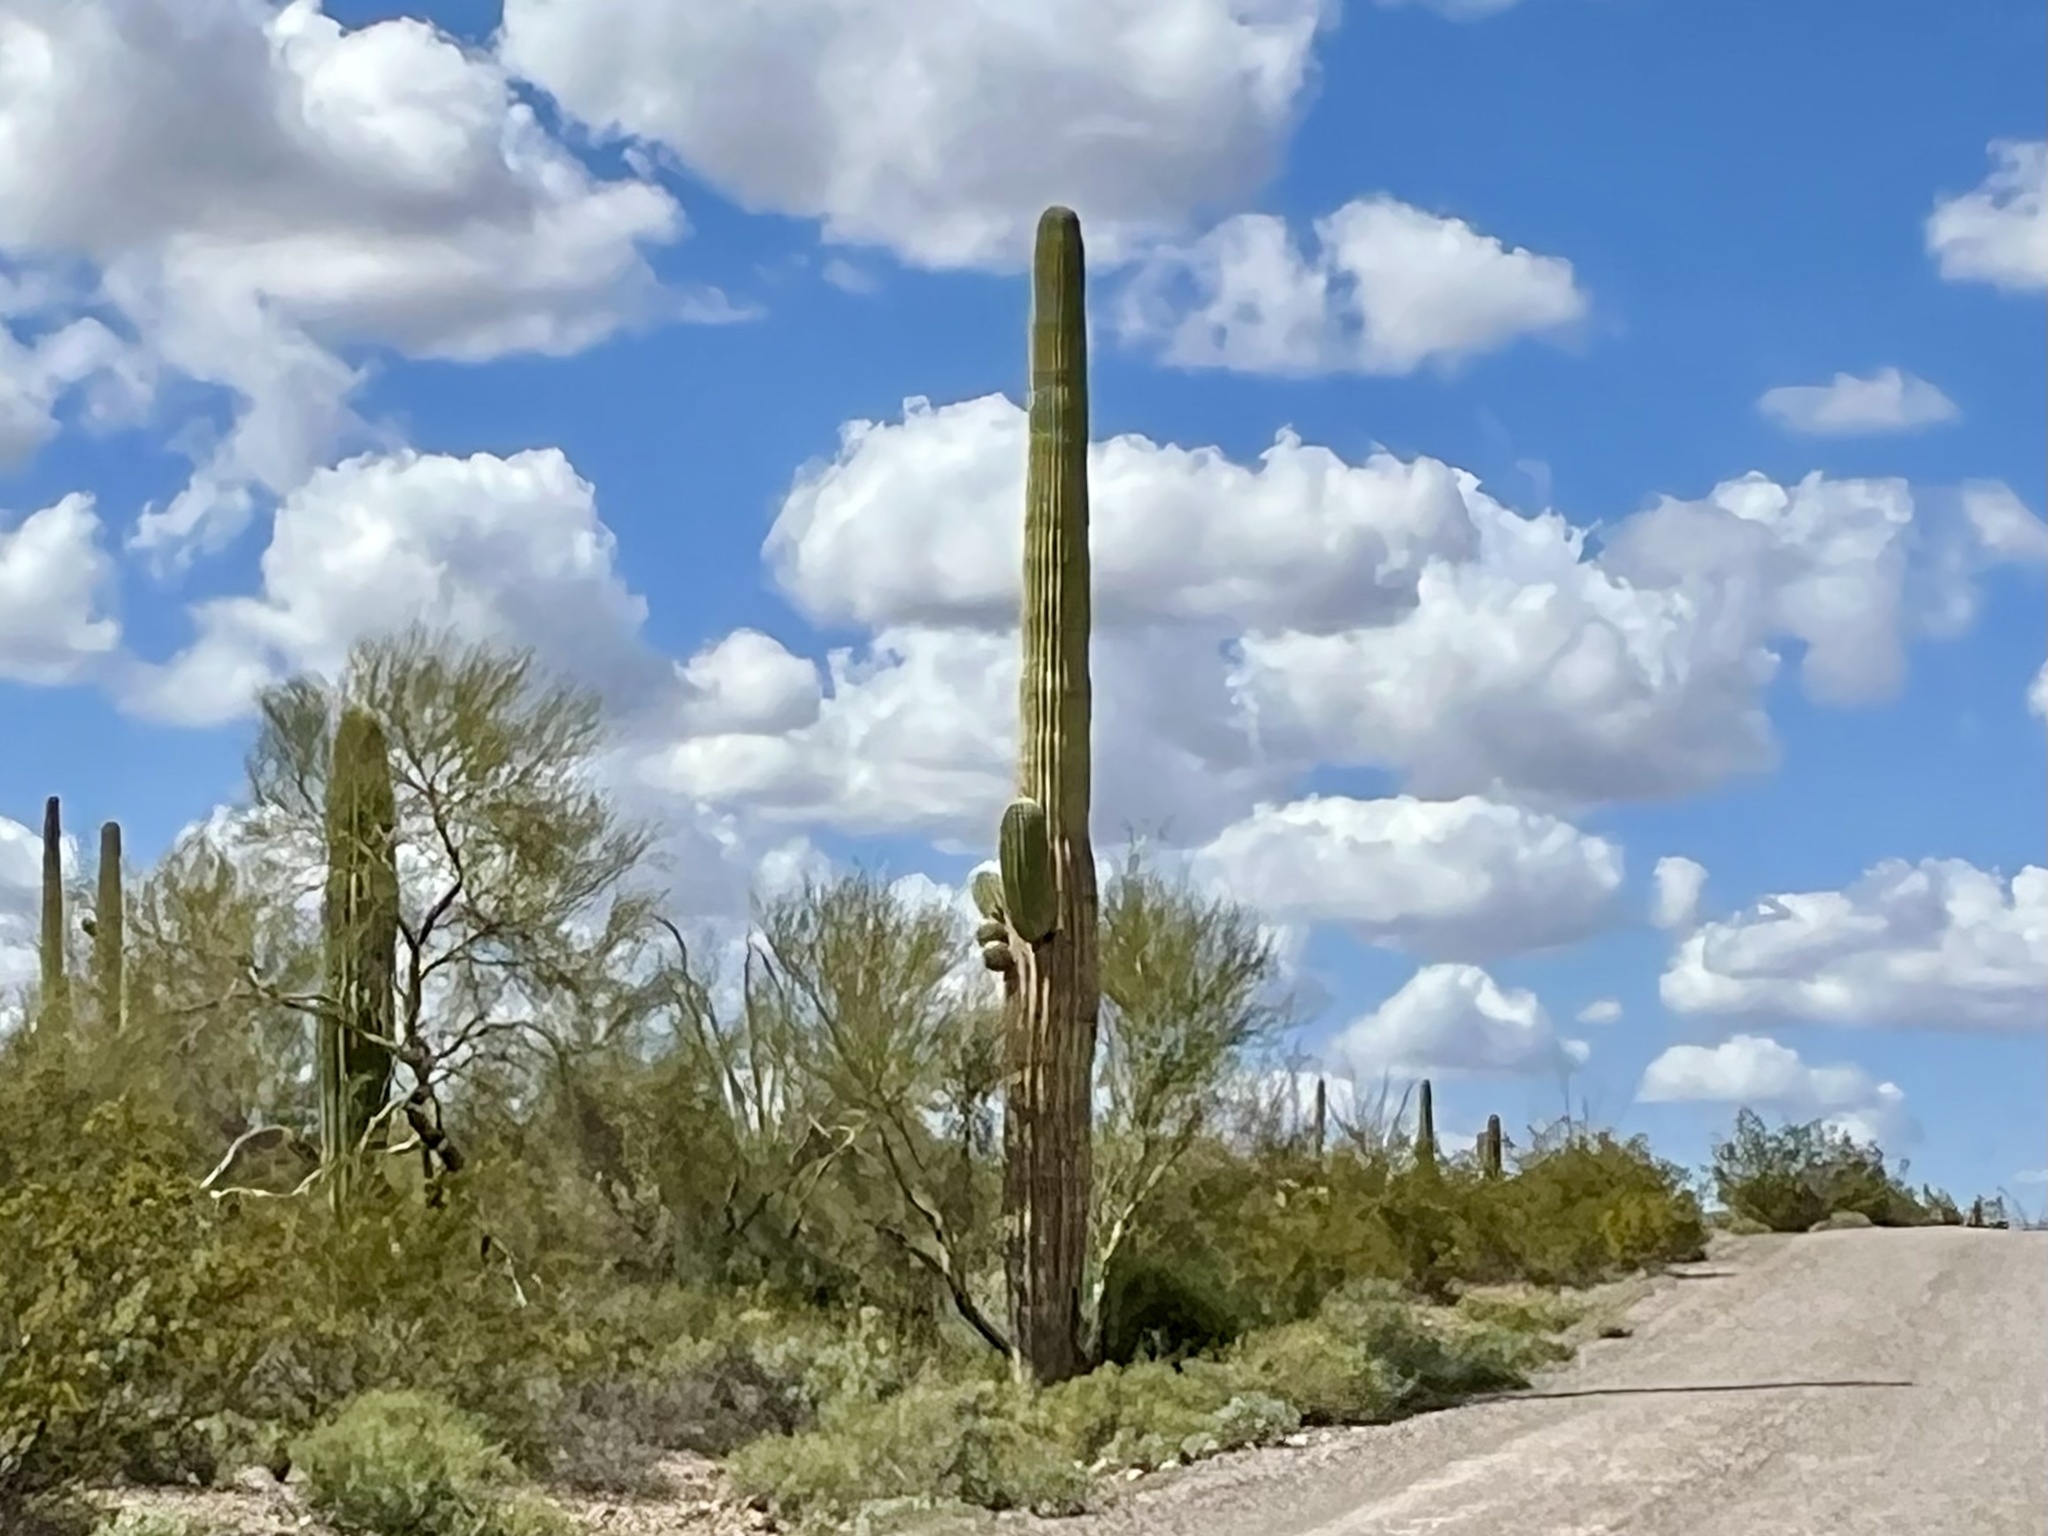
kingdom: Plantae
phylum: Tracheophyta
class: Magnoliopsida
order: Caryophyllales
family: Cactaceae
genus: Carnegiea
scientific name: Carnegiea gigantea
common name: Saguaro
